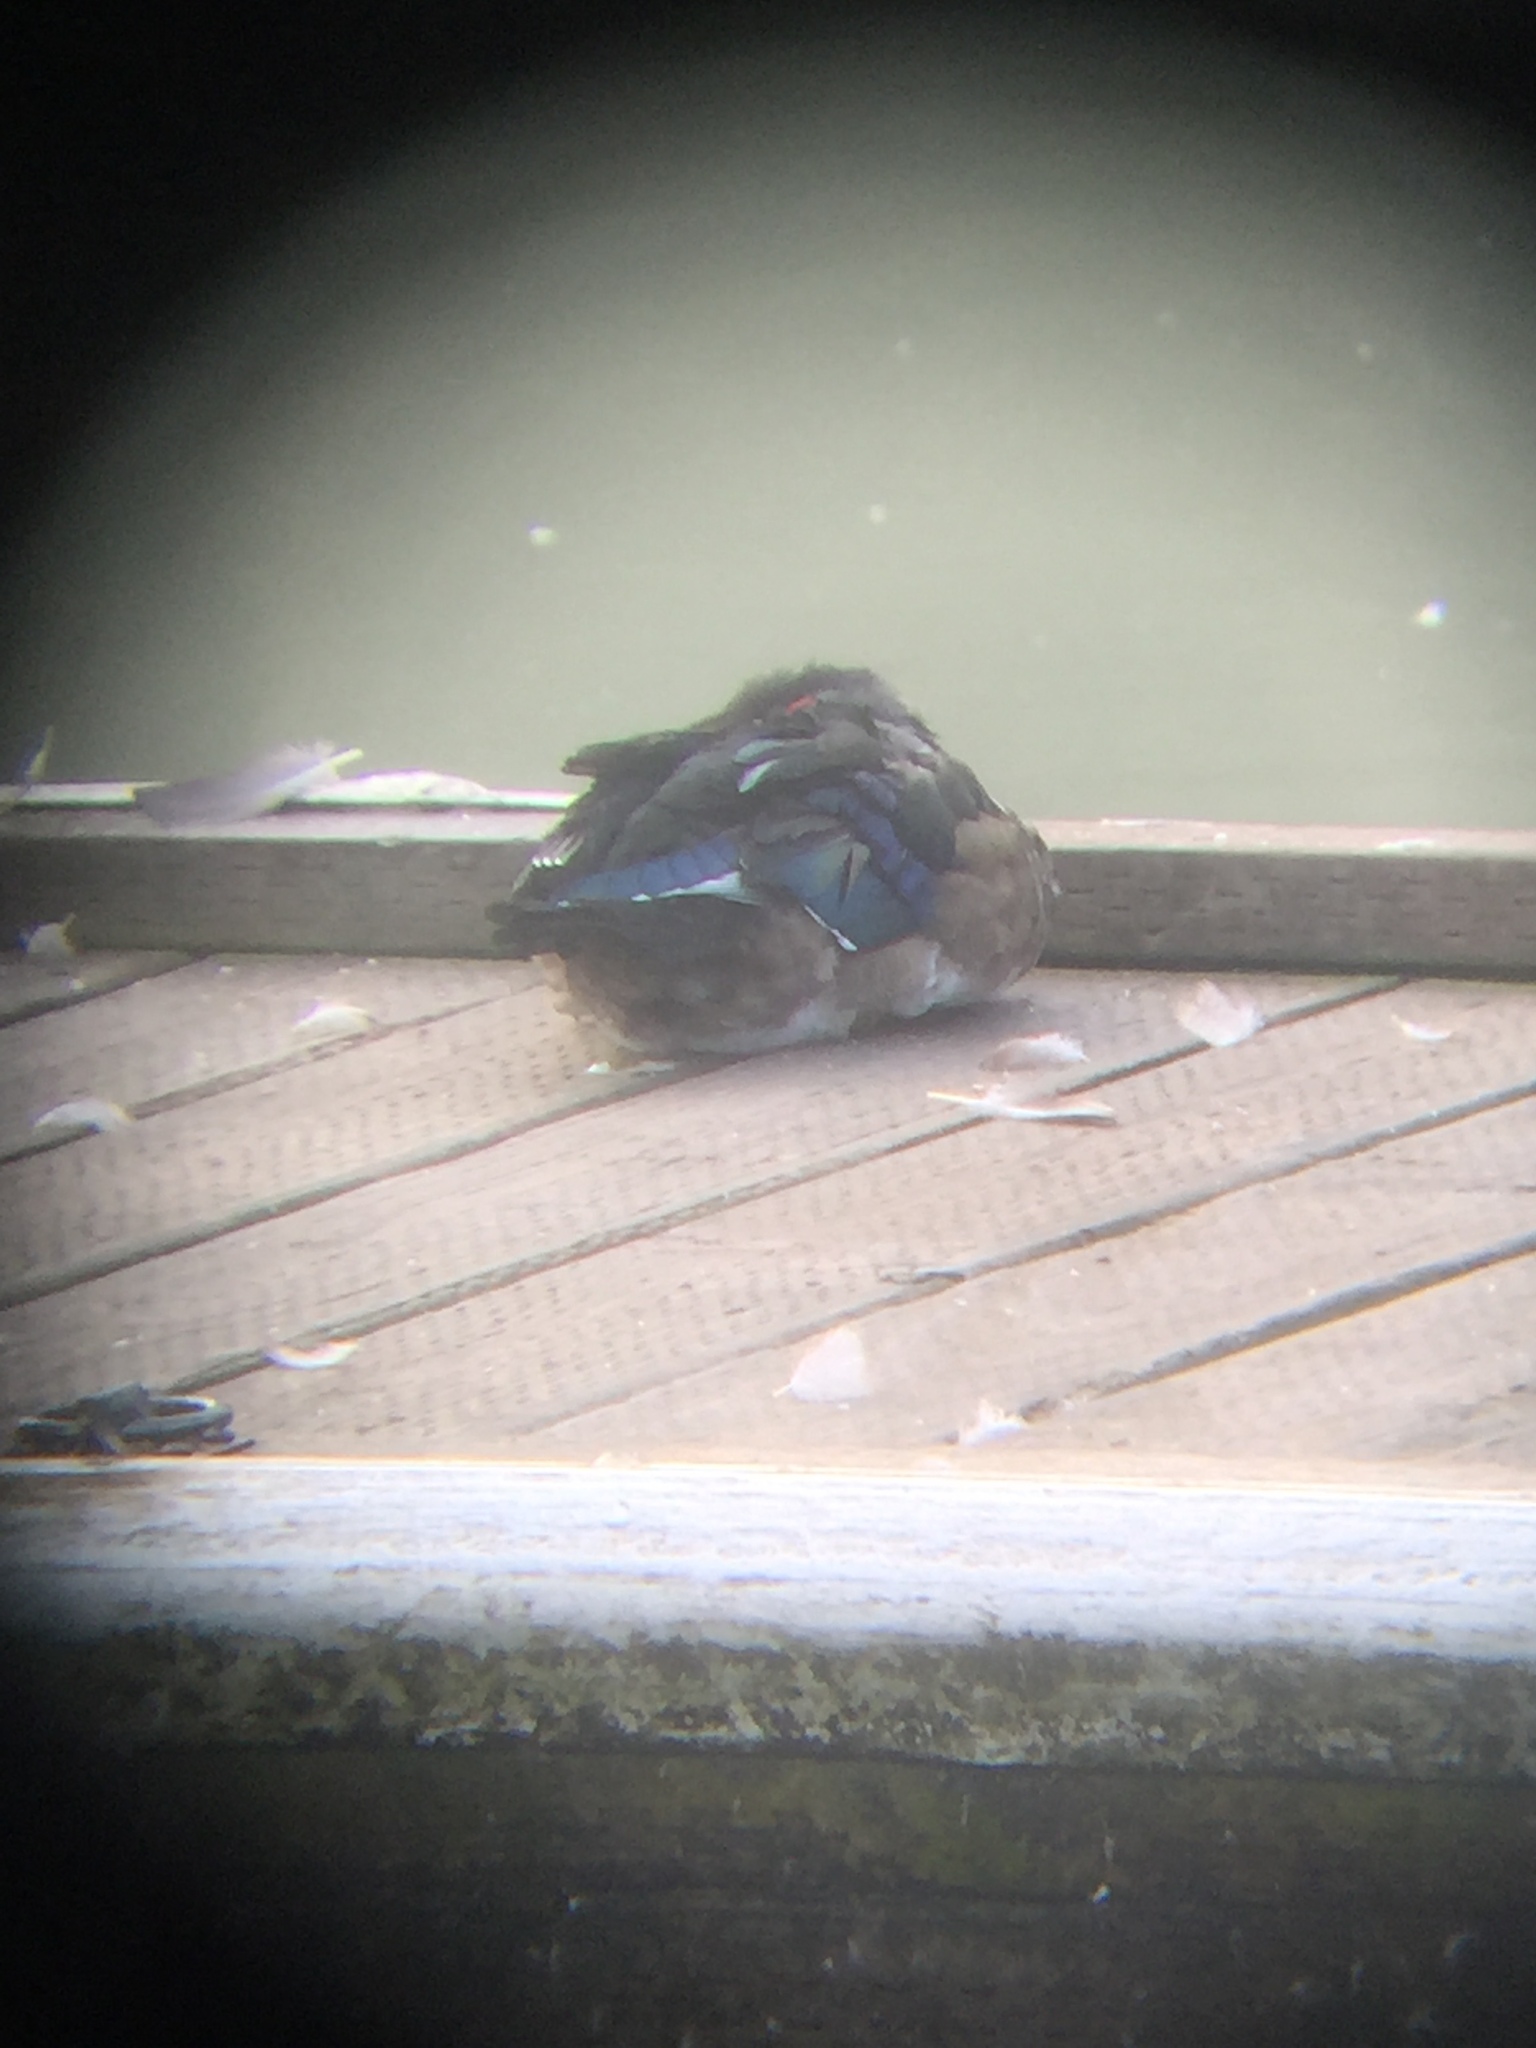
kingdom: Animalia
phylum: Chordata
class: Aves
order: Anseriformes
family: Anatidae
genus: Aix
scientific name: Aix sponsa
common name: Wood duck
